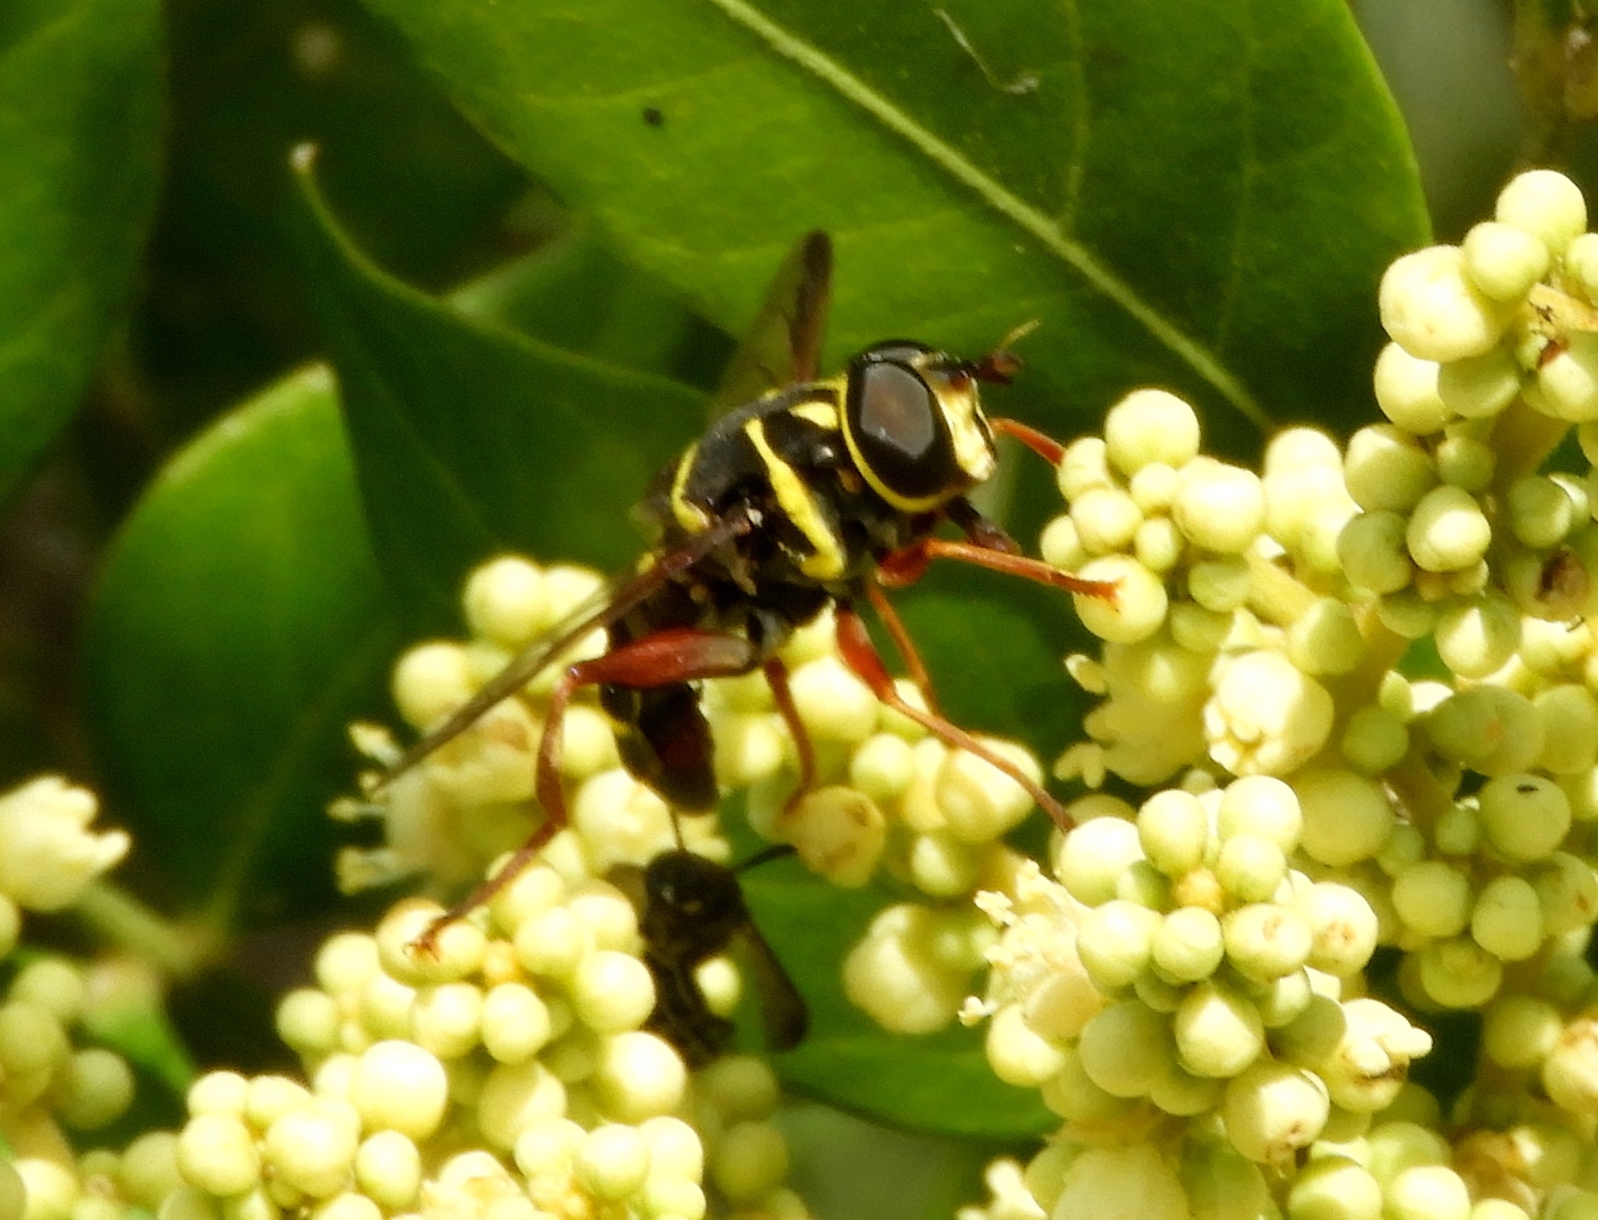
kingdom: Animalia
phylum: Arthropoda
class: Insecta
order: Diptera
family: Syrphidae
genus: Meromacrus
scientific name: Meromacrus
